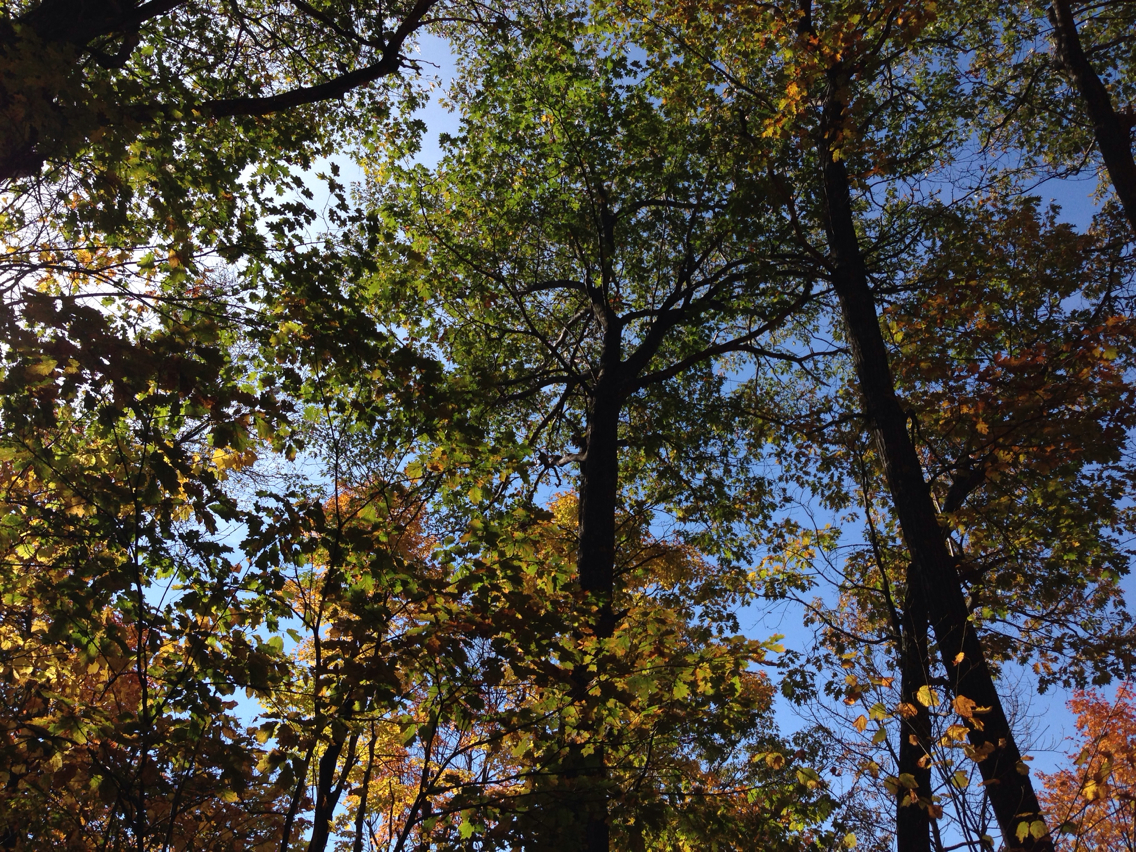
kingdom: Plantae
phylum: Tracheophyta
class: Magnoliopsida
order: Fagales
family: Fagaceae
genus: Quercus
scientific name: Quercus rubra
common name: Red oak
